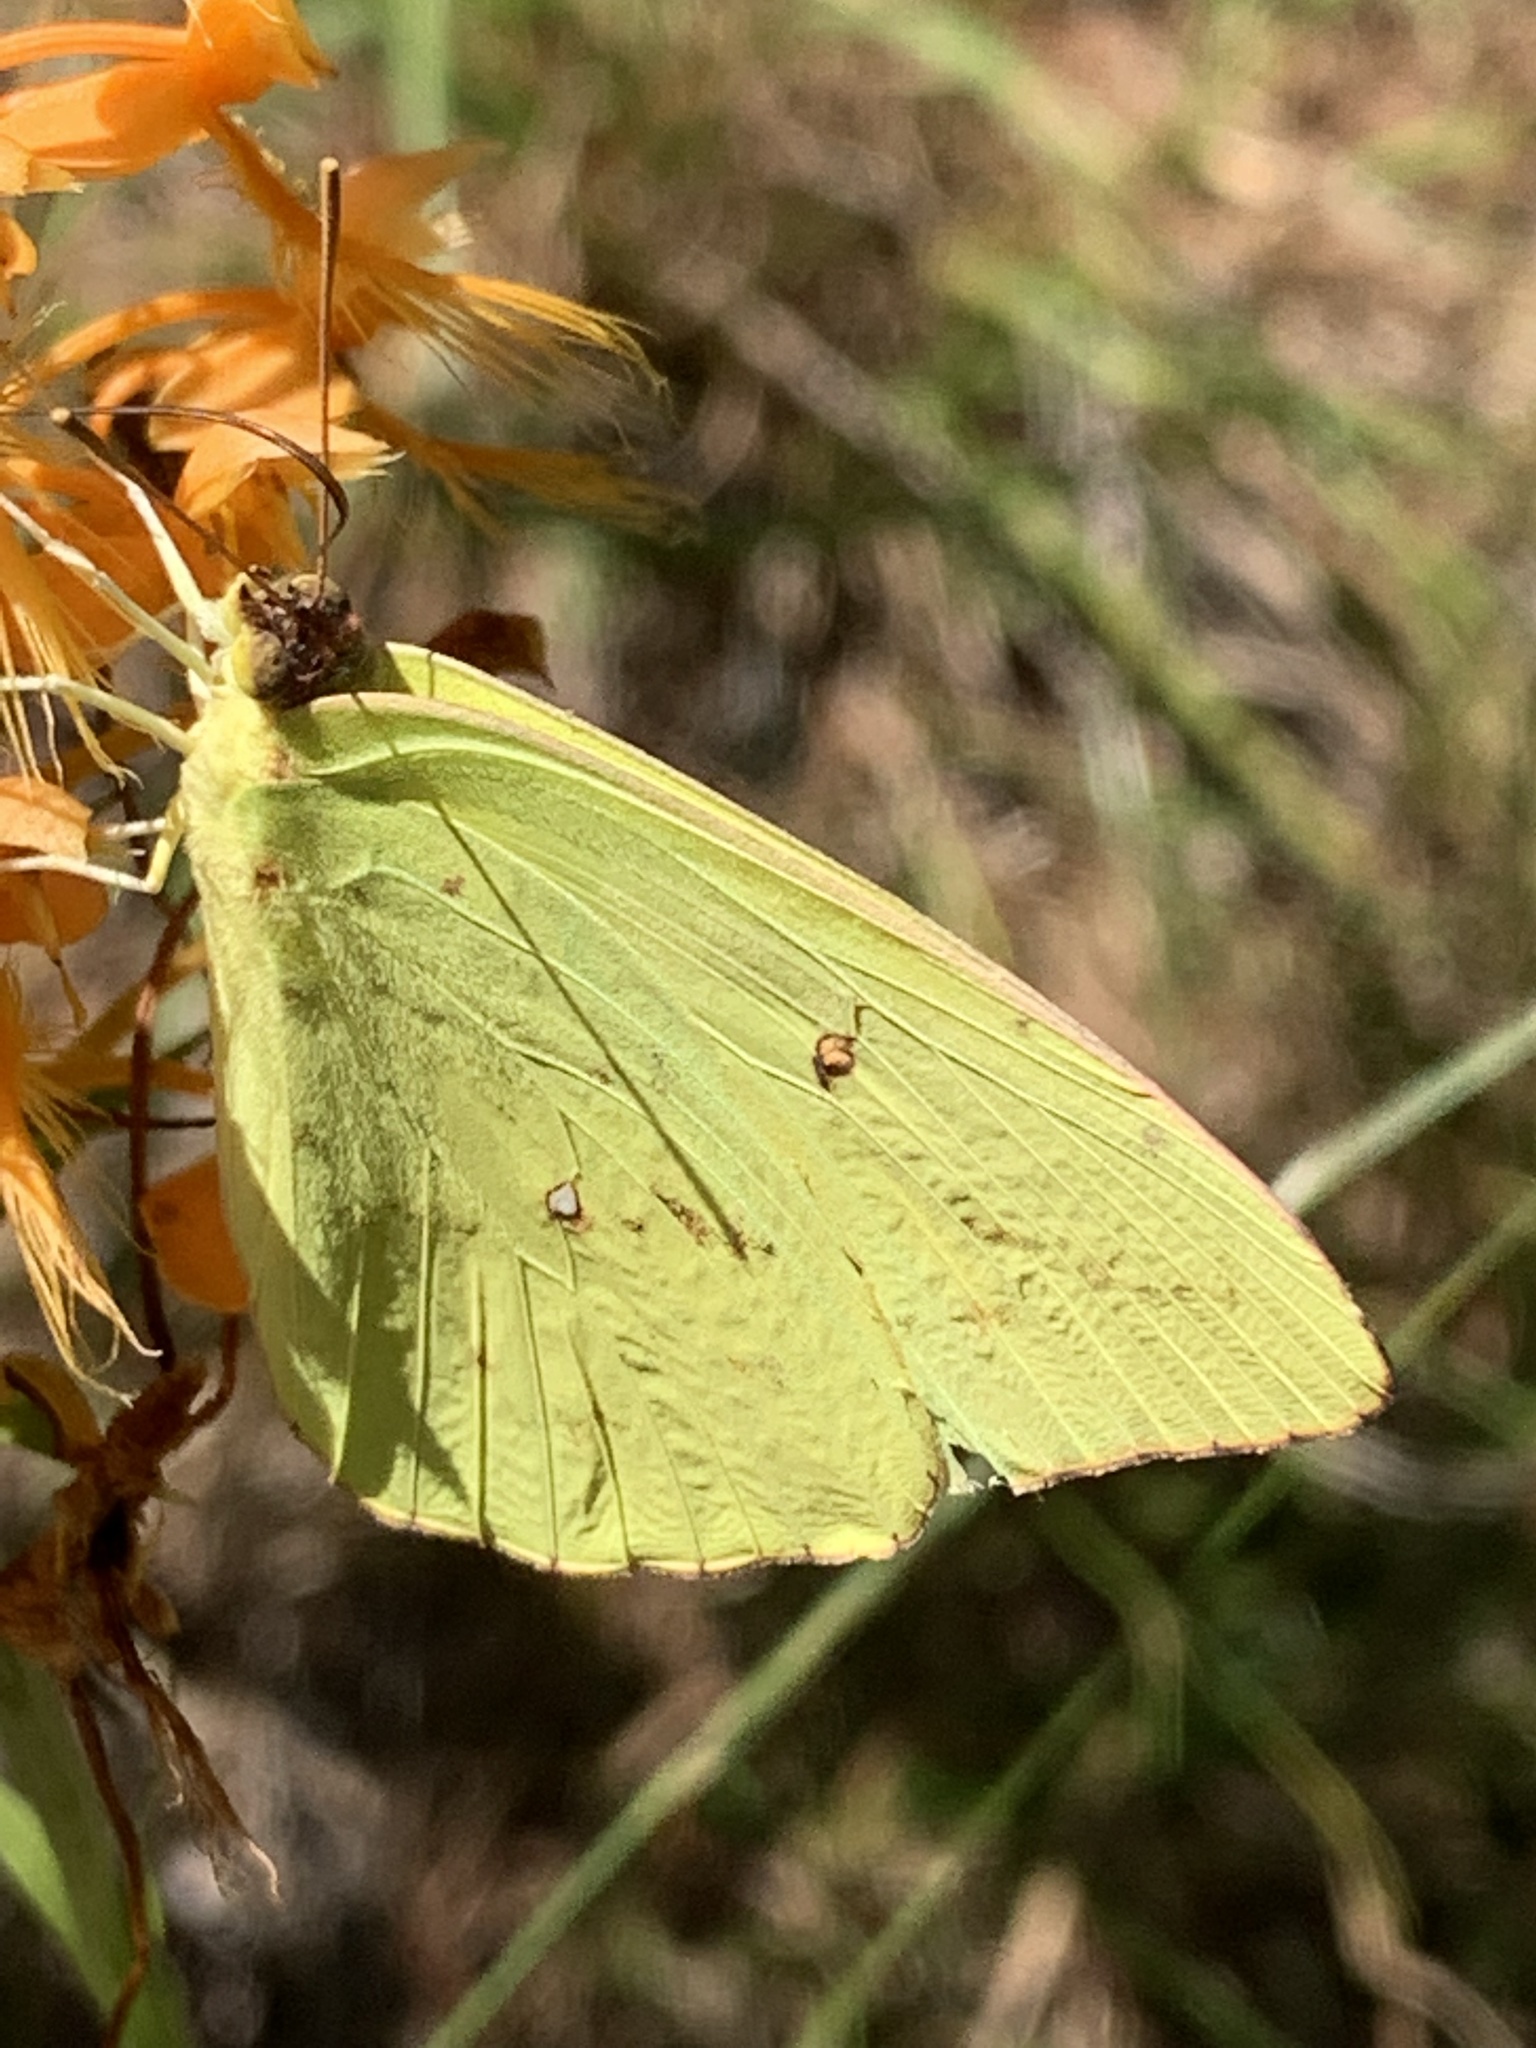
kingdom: Animalia
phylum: Arthropoda
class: Insecta
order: Lepidoptera
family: Pieridae
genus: Phoebis
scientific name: Phoebis sennae
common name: Cloudless sulphur
